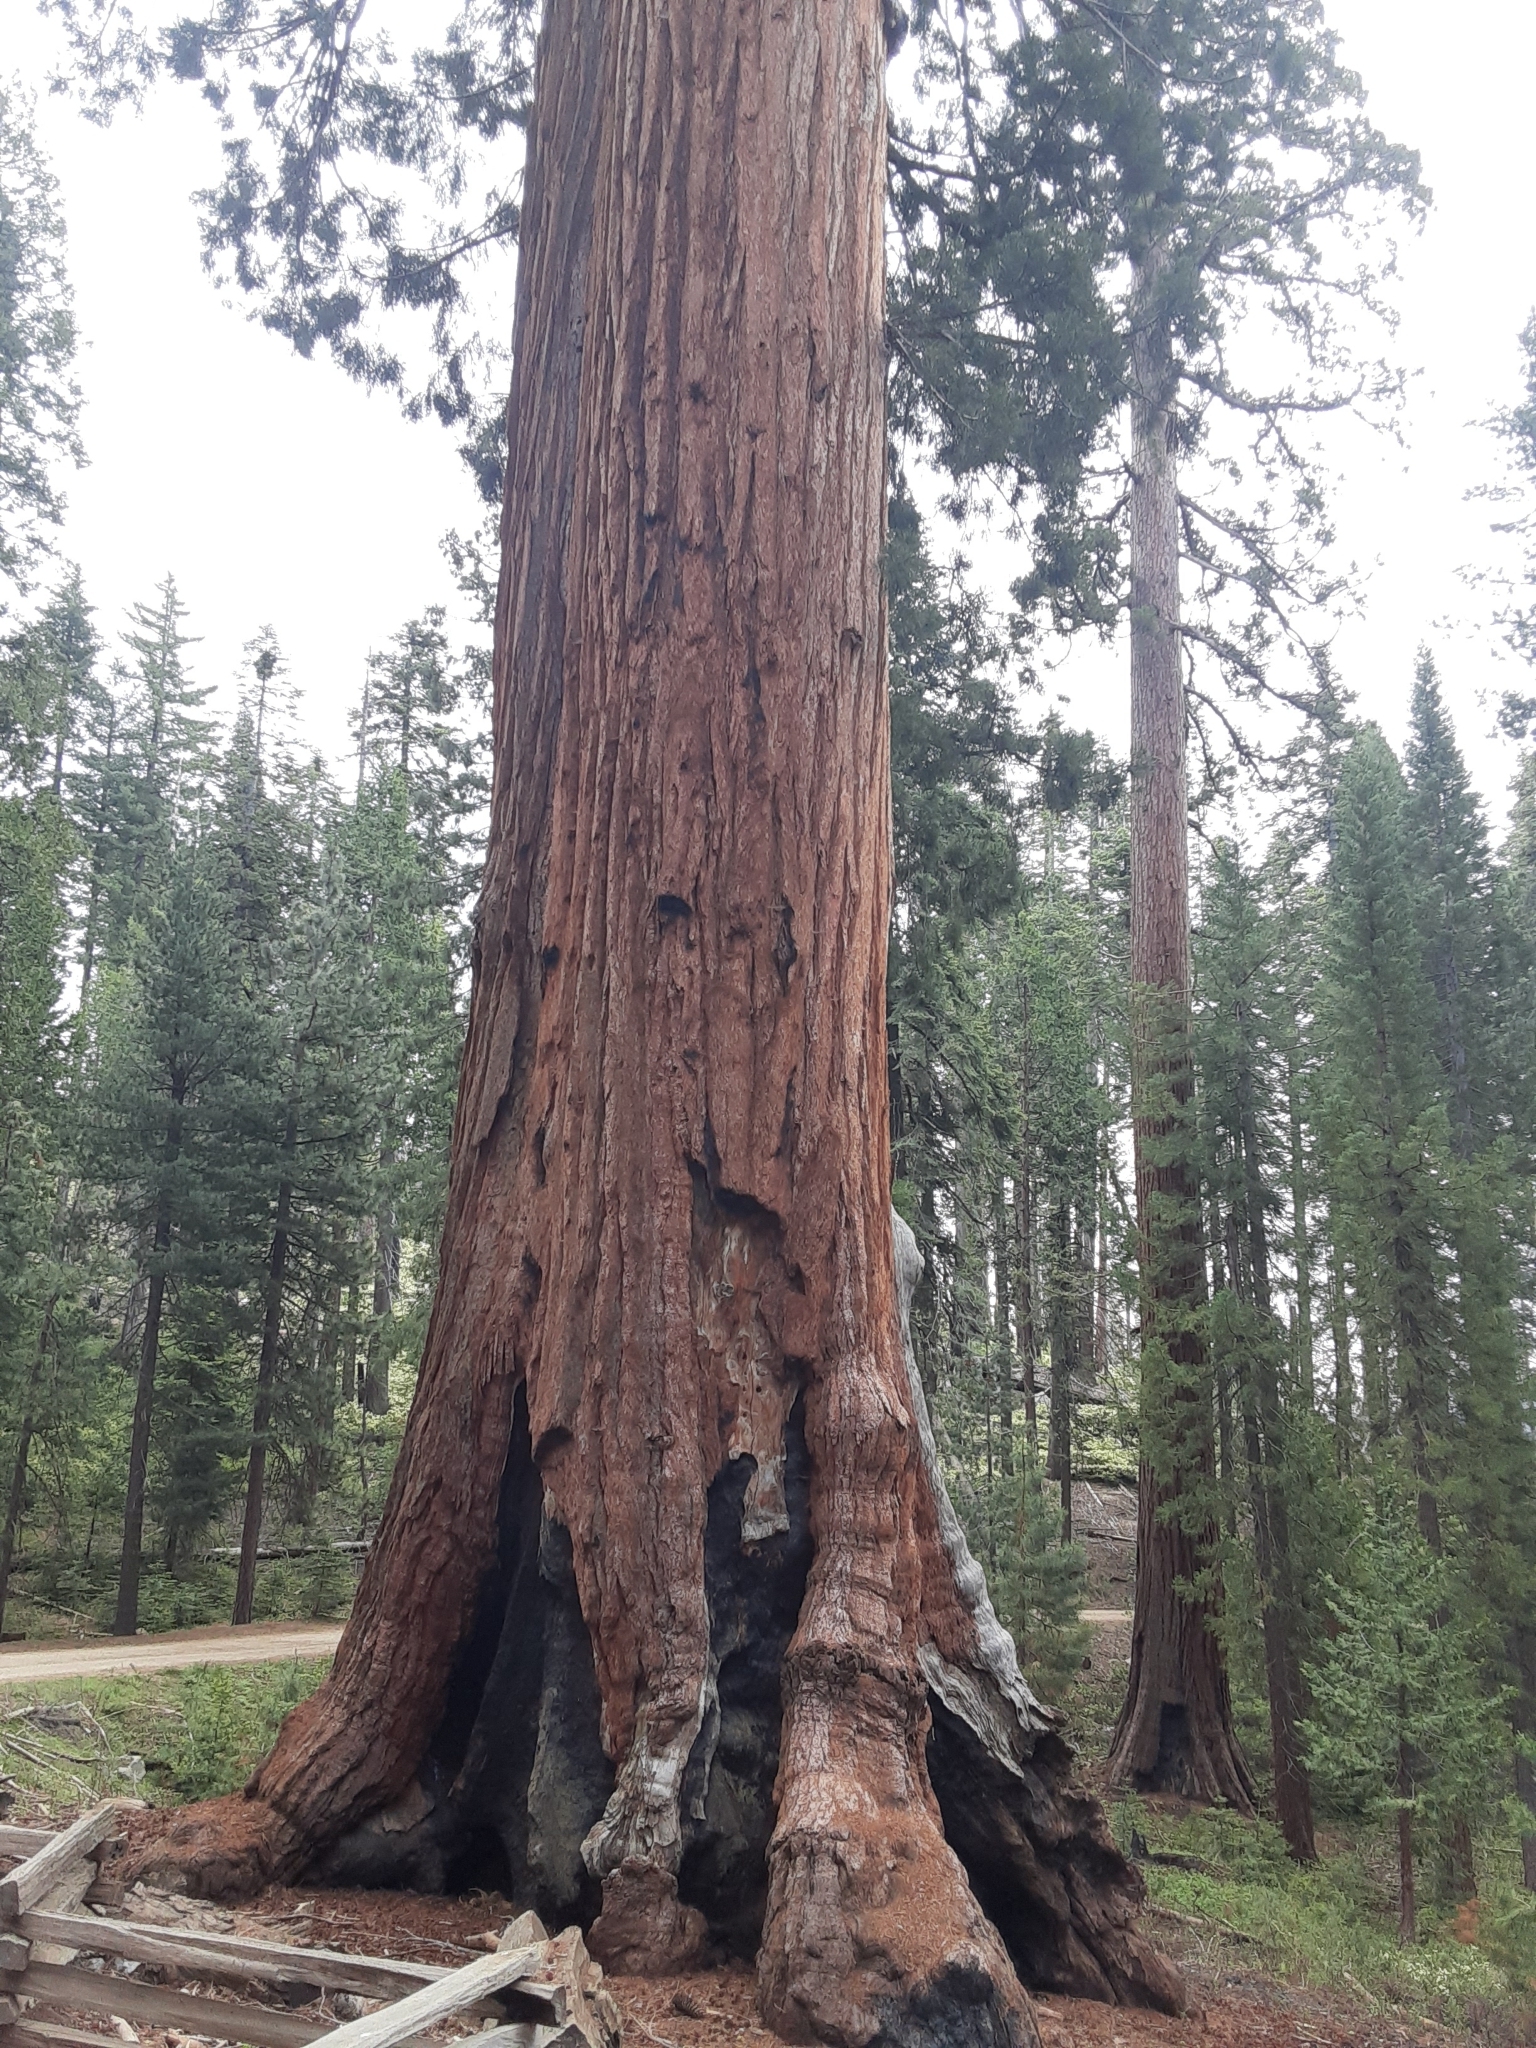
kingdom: Plantae
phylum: Tracheophyta
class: Pinopsida
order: Pinales
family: Cupressaceae
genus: Sequoiadendron
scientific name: Sequoiadendron giganteum
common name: Wellingtonia
